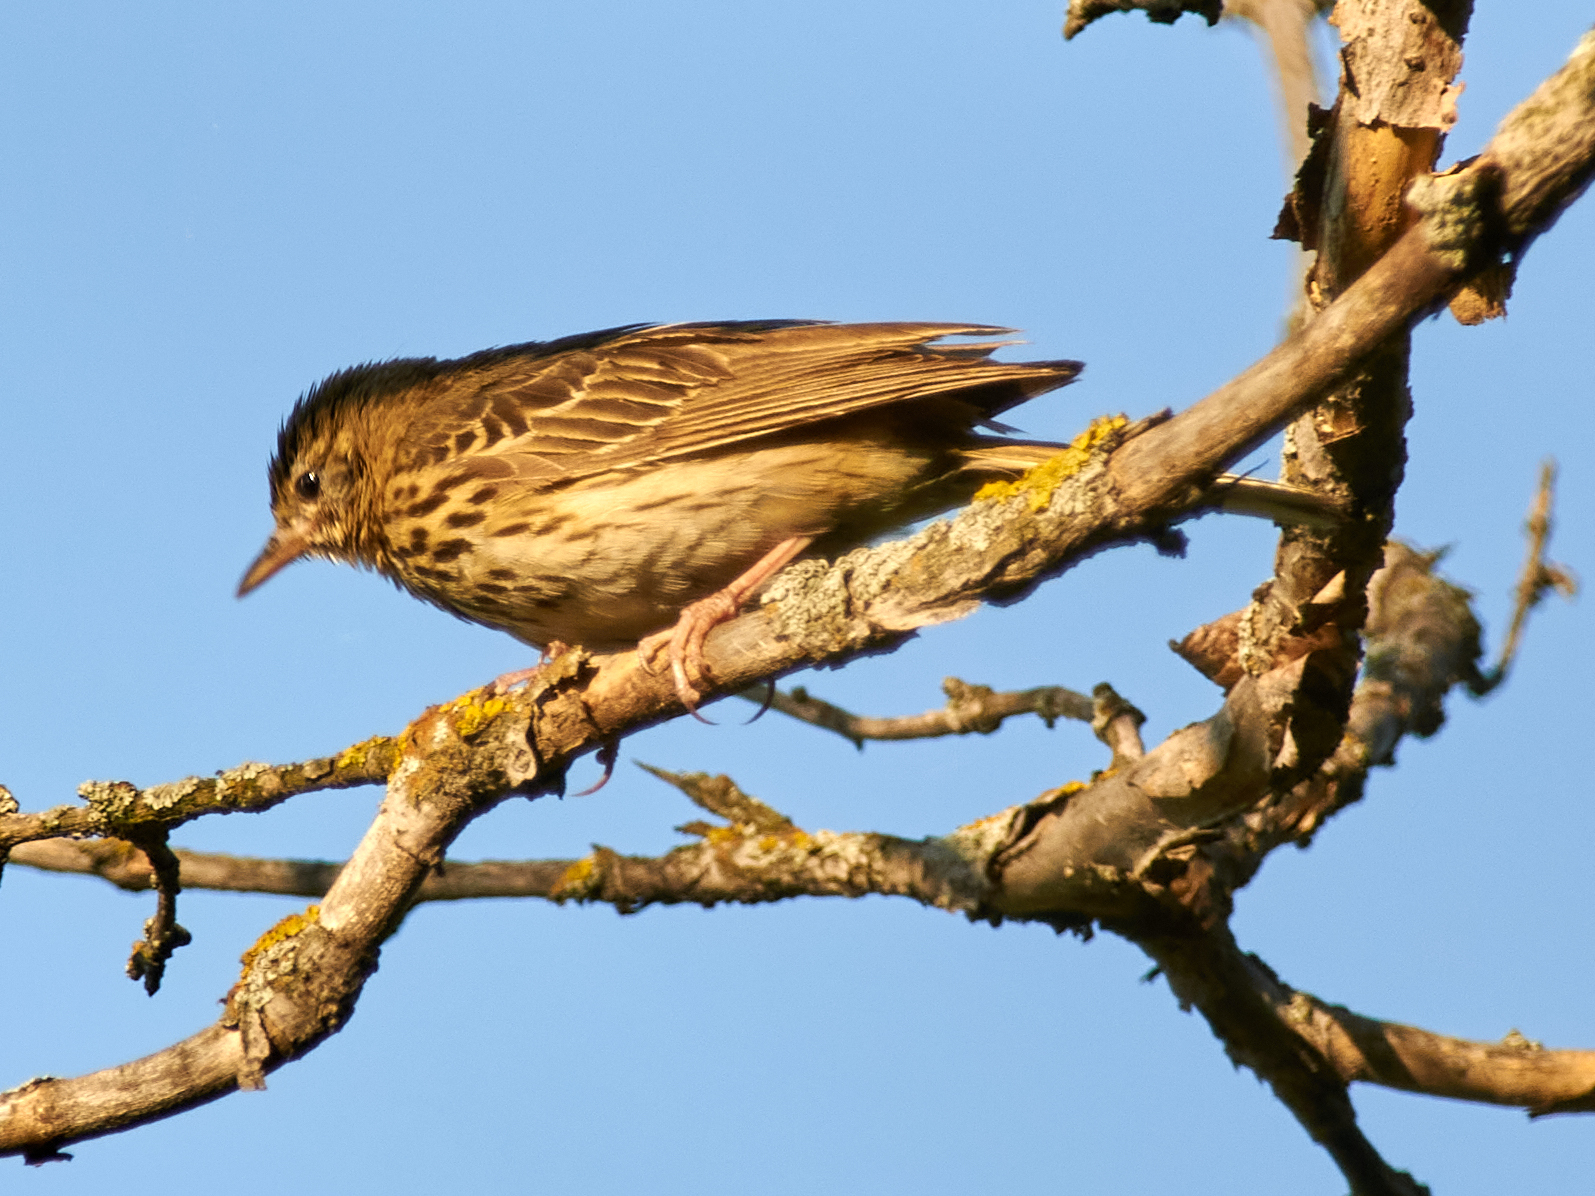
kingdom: Animalia
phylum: Chordata
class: Aves
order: Passeriformes
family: Motacillidae
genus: Anthus
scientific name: Anthus trivialis
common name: Tree pipit
